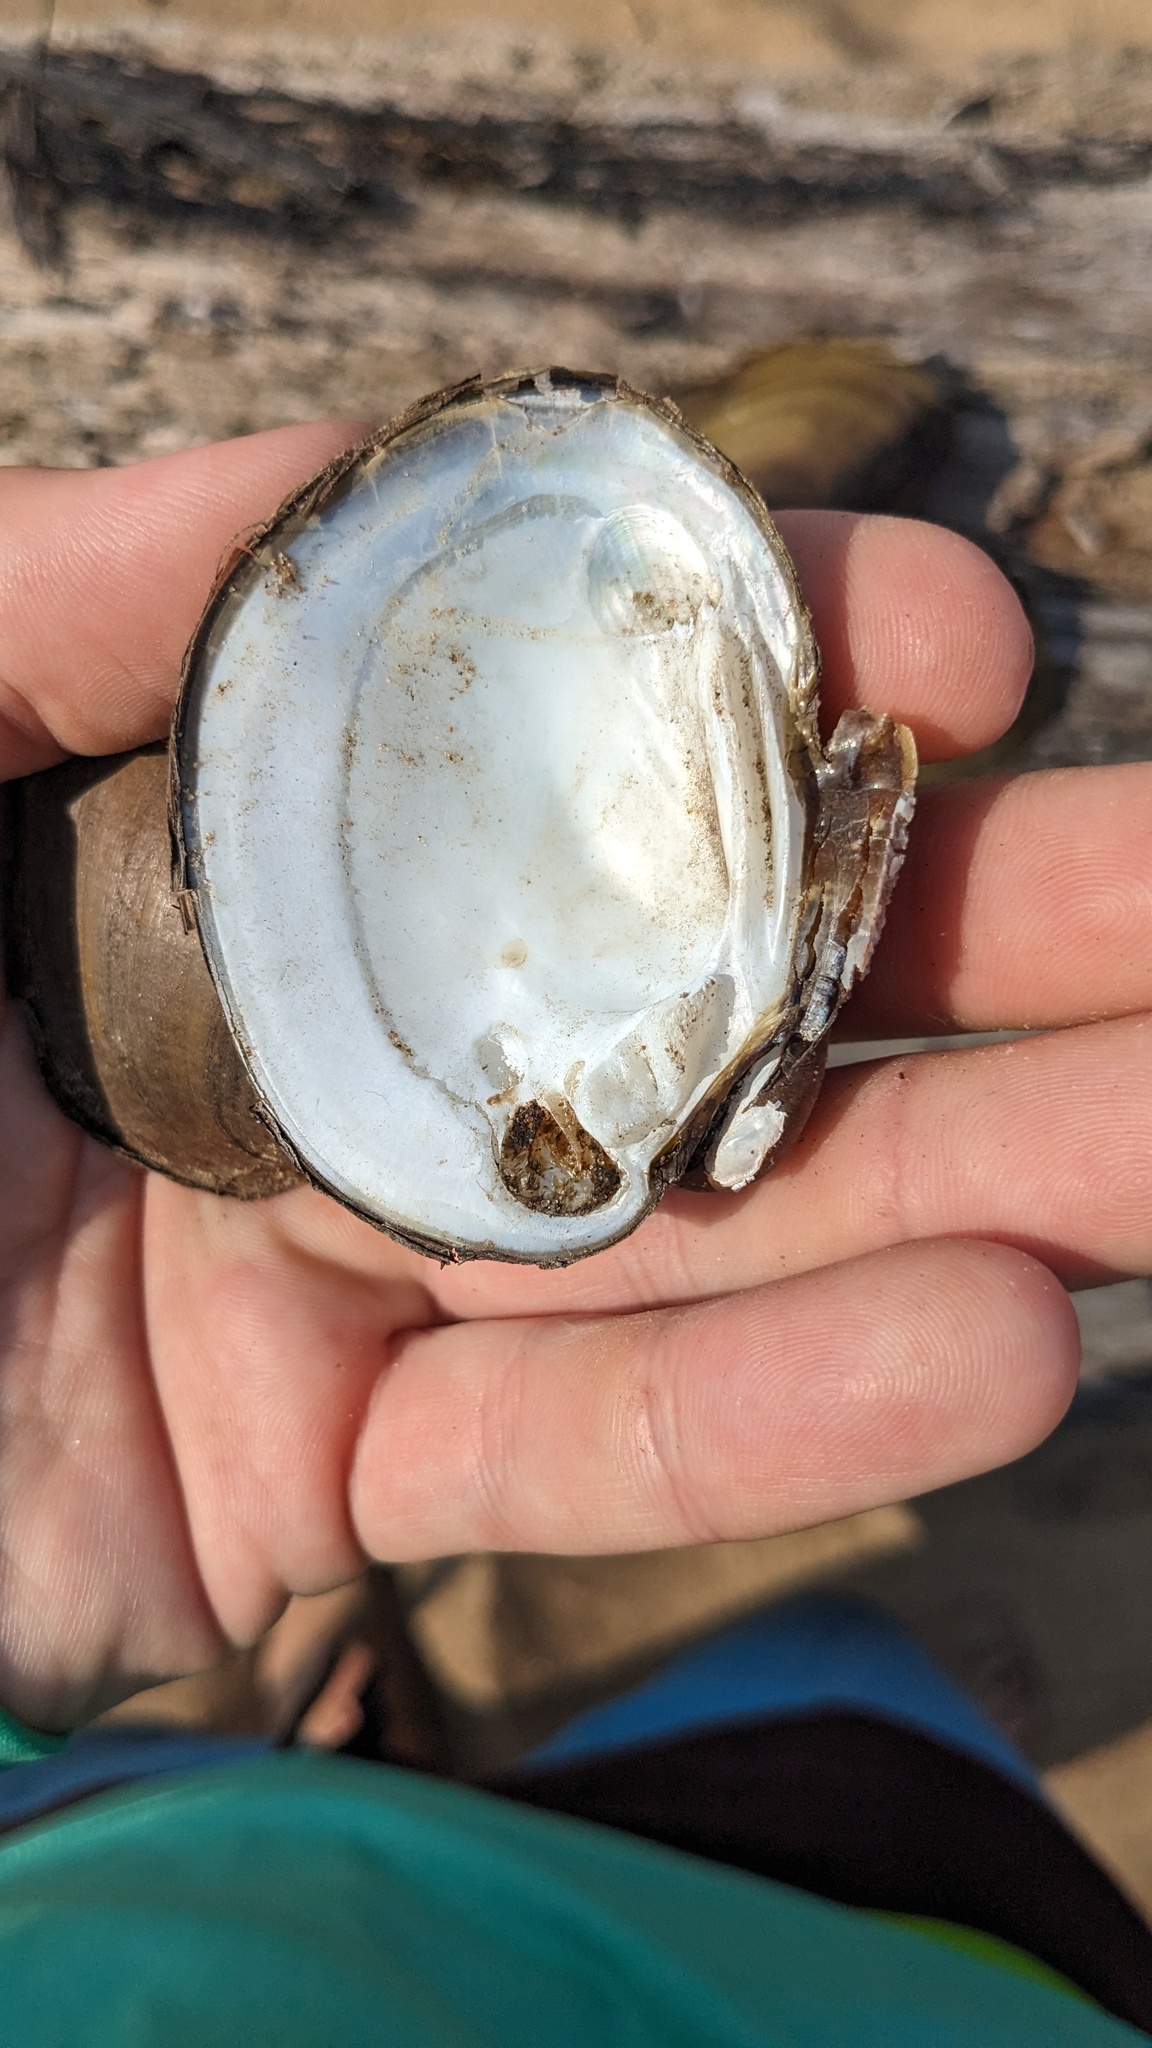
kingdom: Animalia
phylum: Mollusca
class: Bivalvia
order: Unionida
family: Unionidae
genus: Obovaria
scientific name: Obovaria olivaria
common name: Hickorynut
